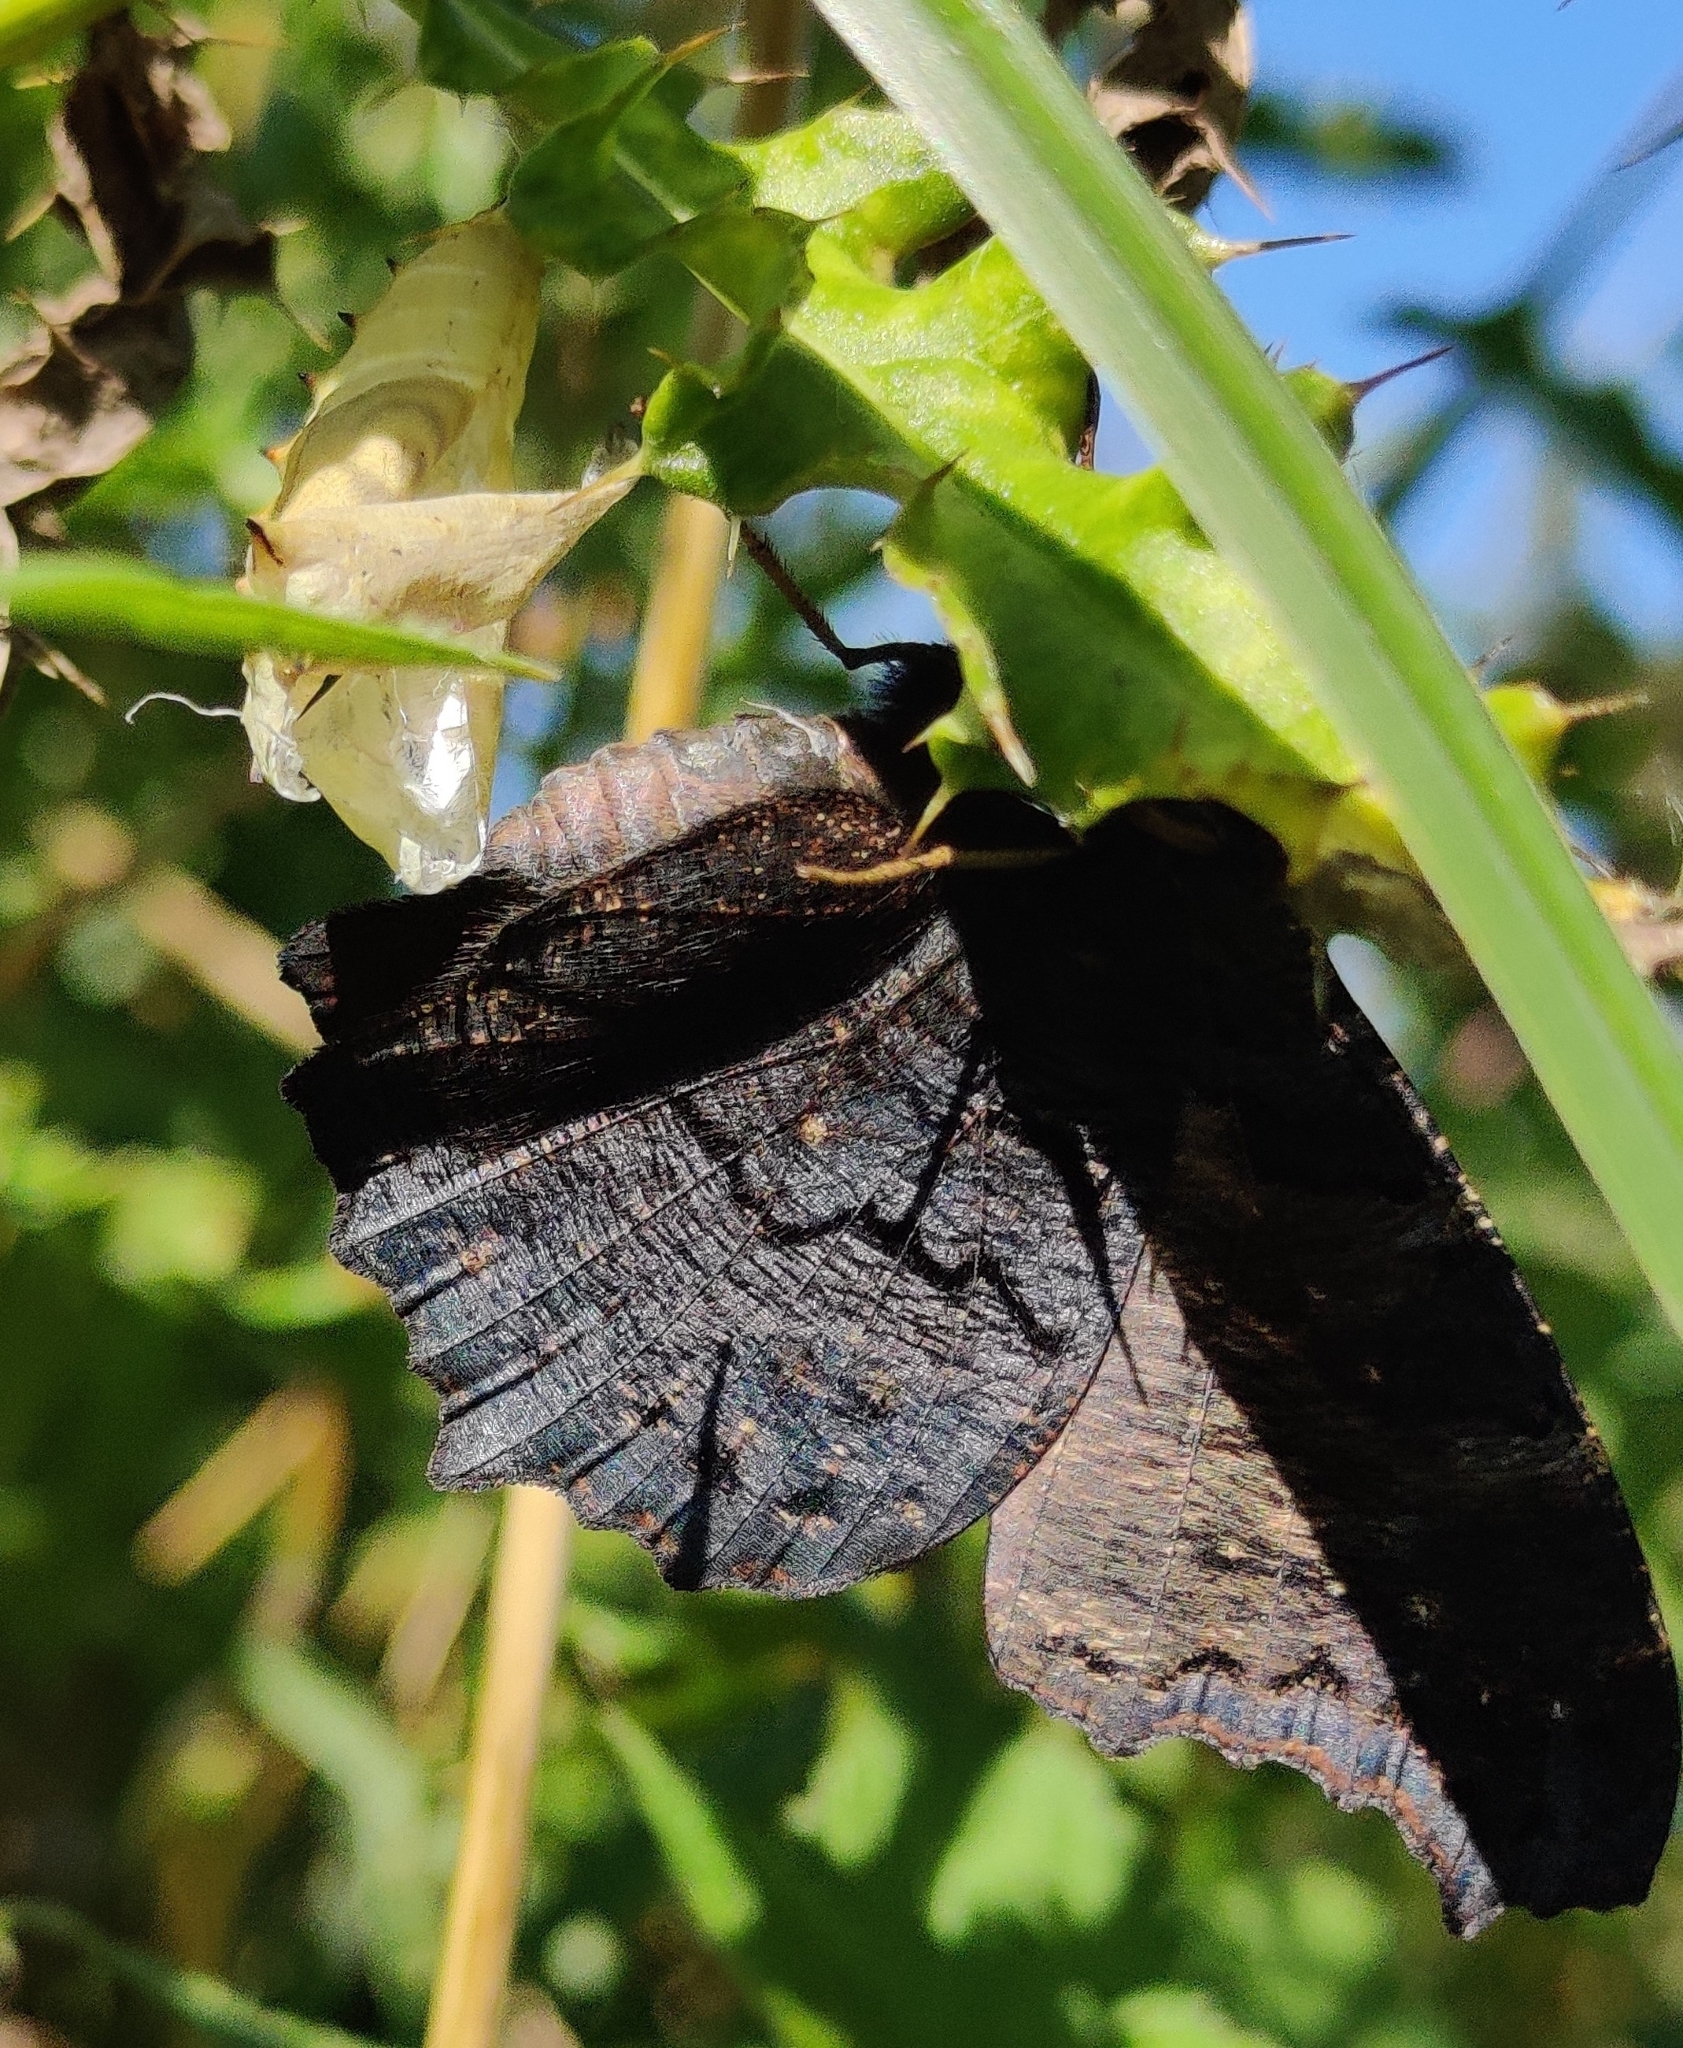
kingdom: Animalia
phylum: Arthropoda
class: Insecta
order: Lepidoptera
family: Nymphalidae
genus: Aglais
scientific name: Aglais io
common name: Peacock
